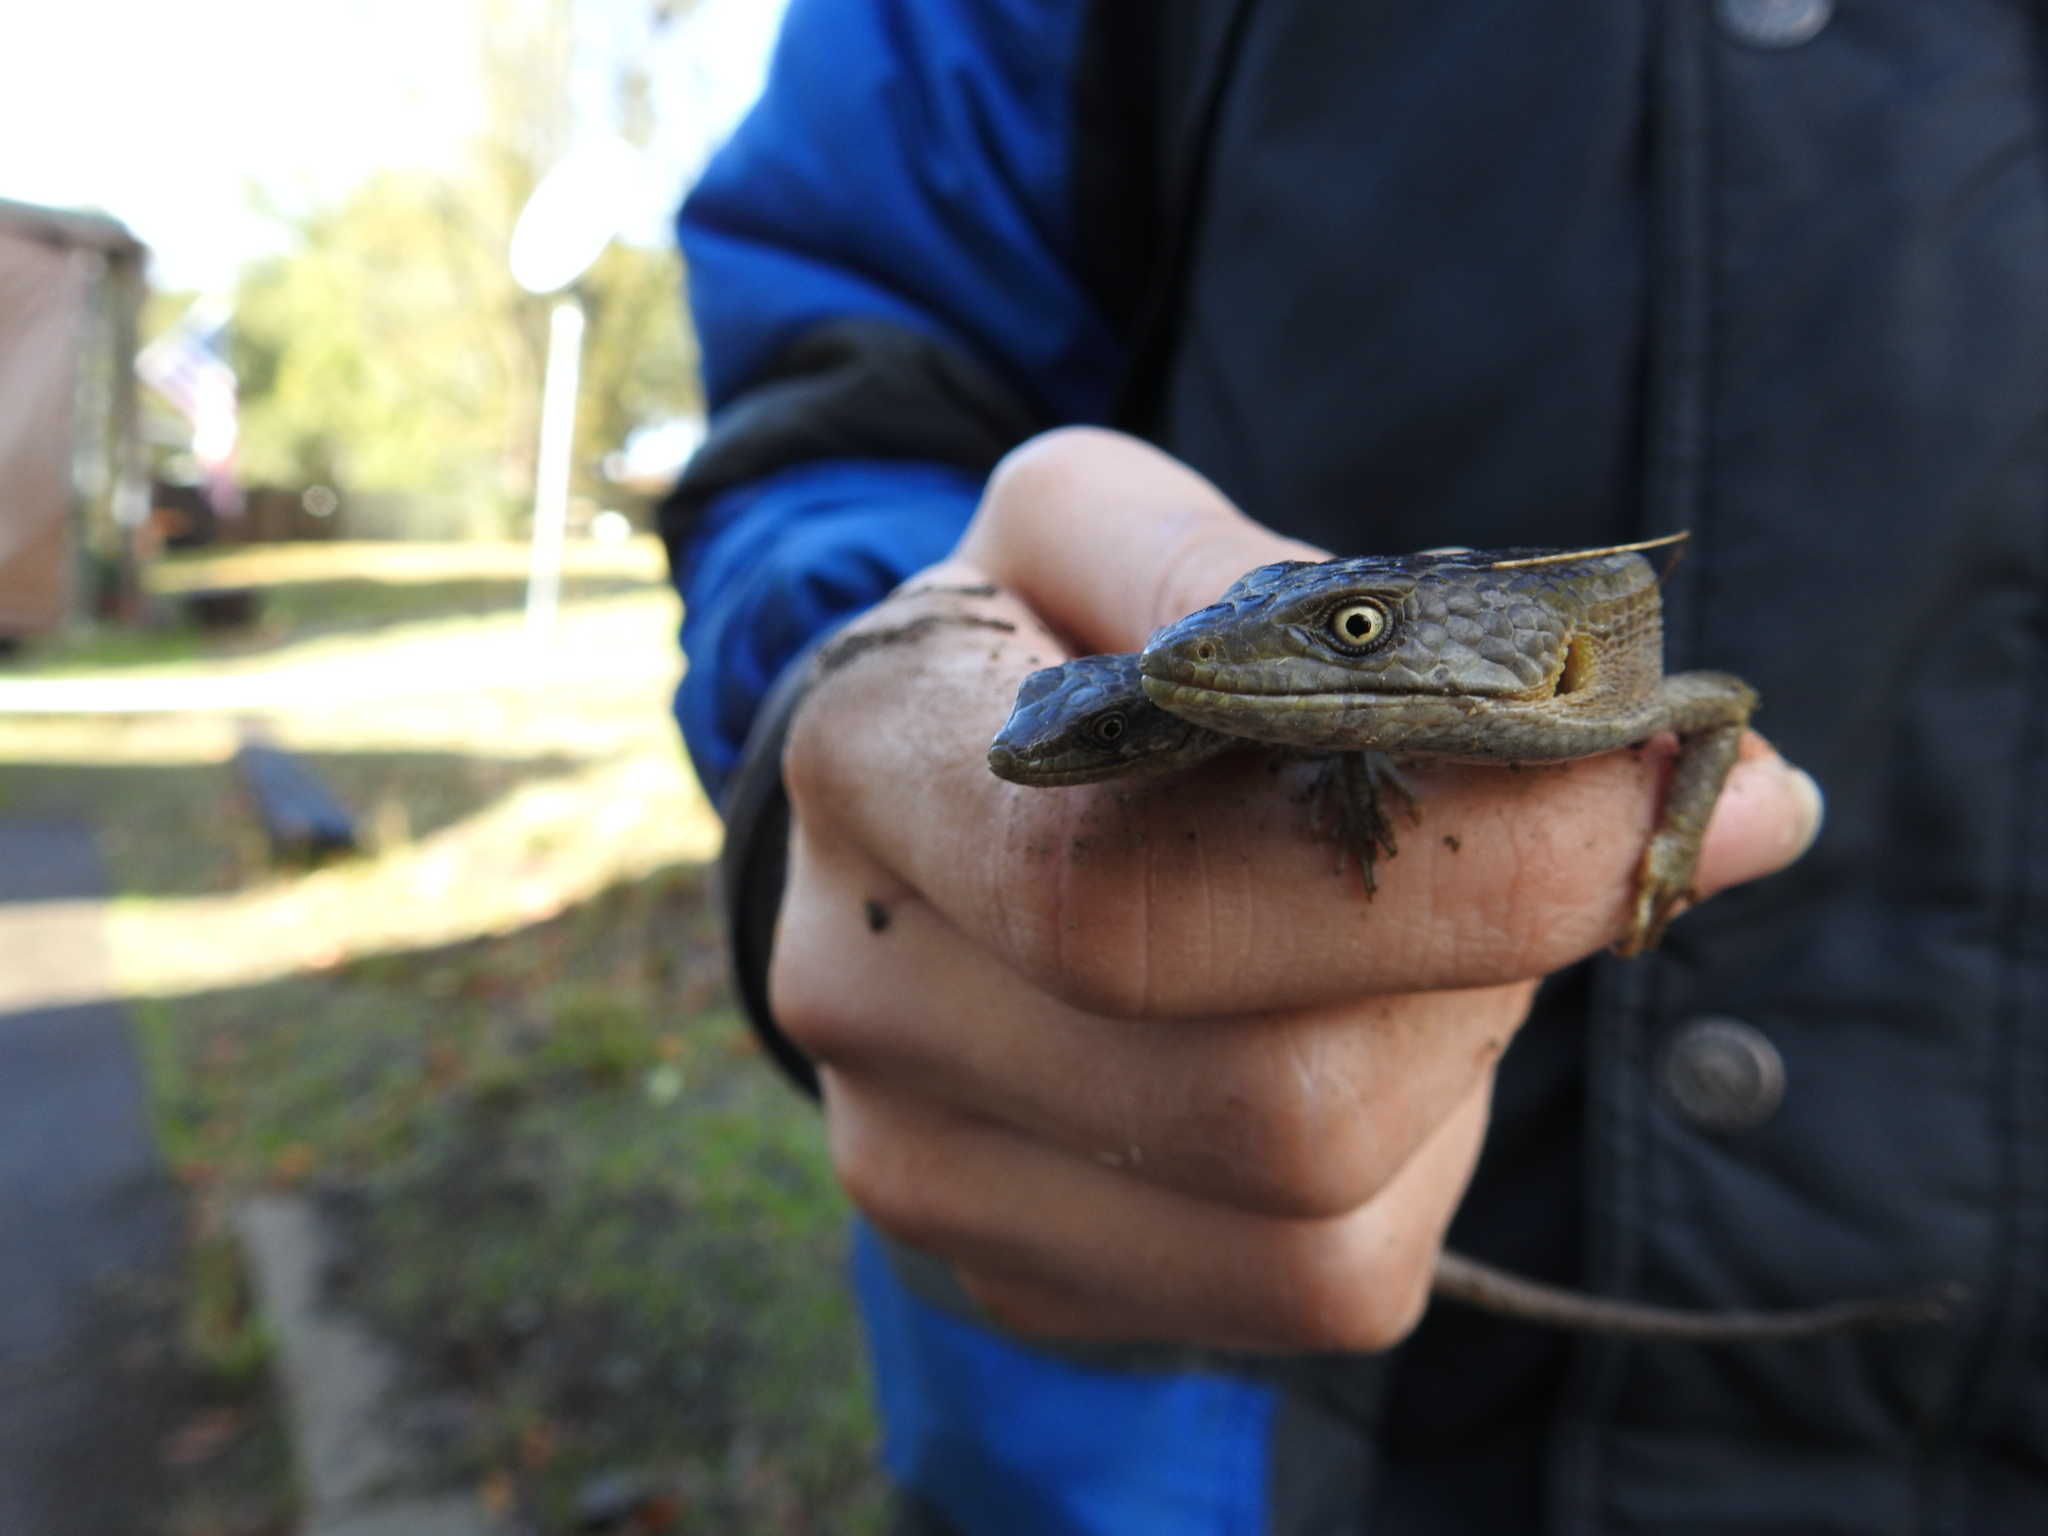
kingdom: Animalia
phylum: Chordata
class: Squamata
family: Anguidae
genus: Elgaria
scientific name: Elgaria multicarinata
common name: Southern alligator lizard
